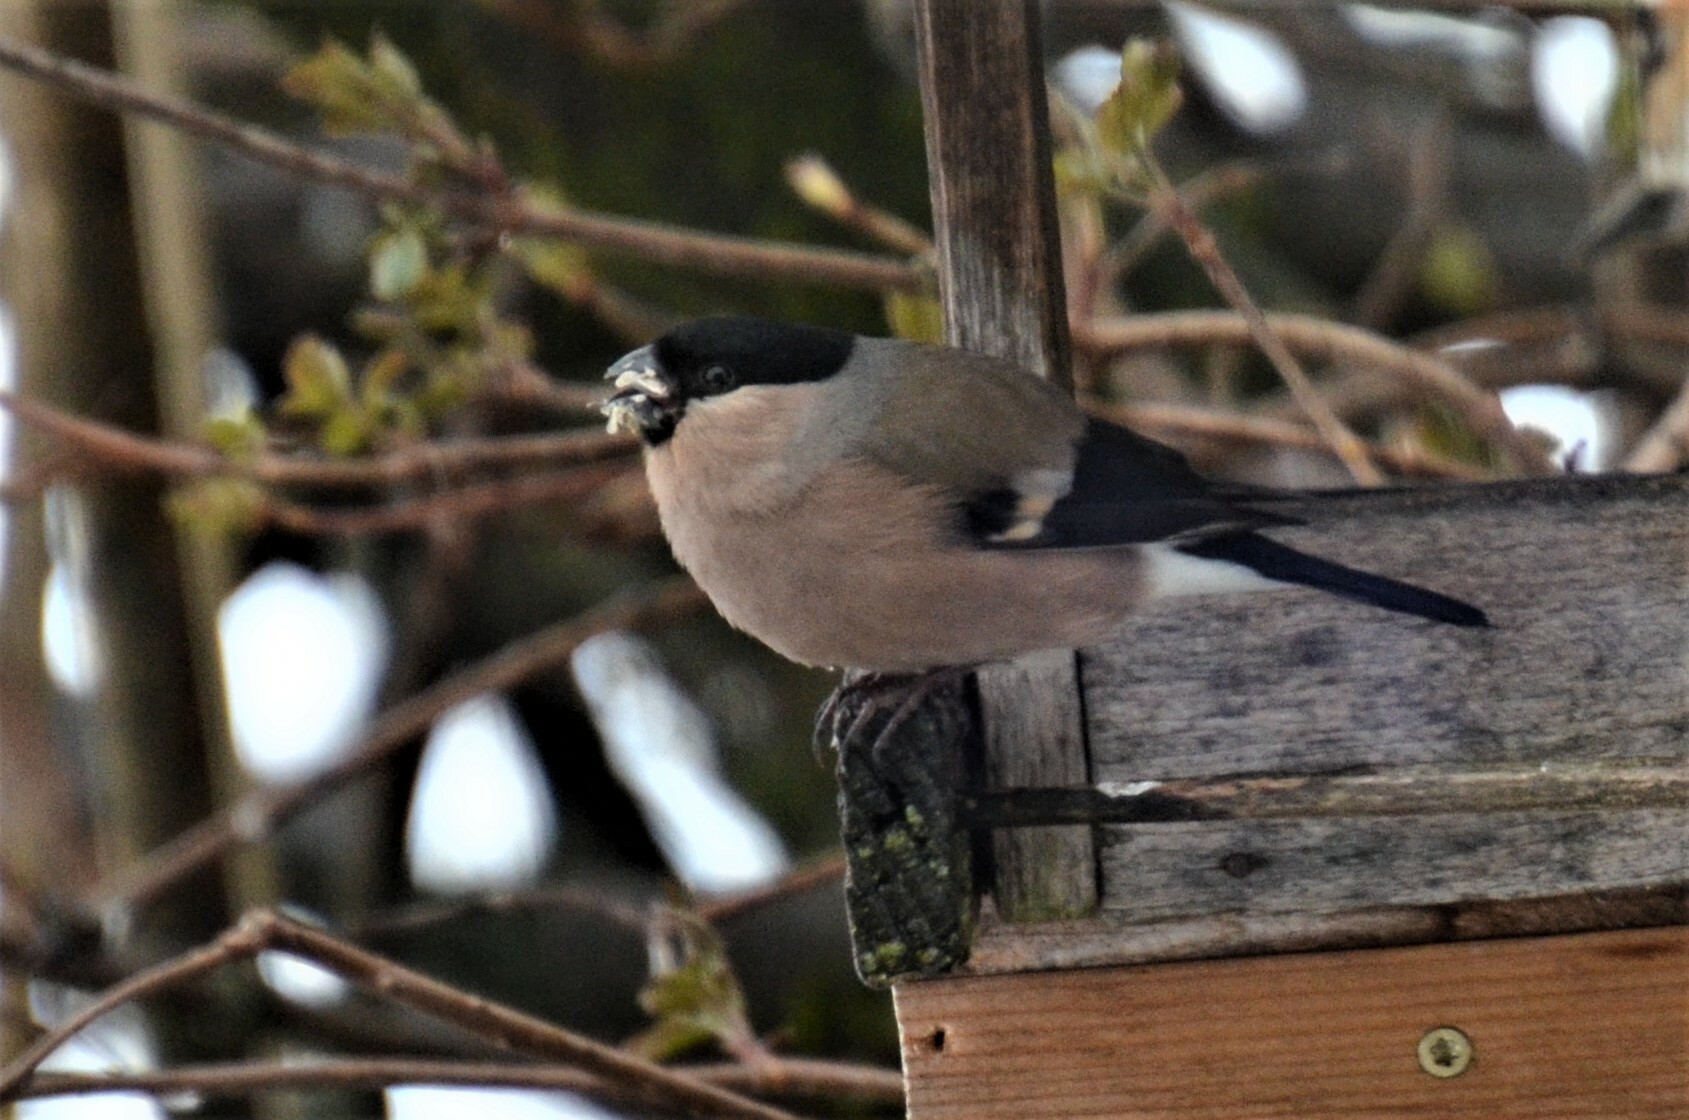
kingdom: Animalia
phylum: Chordata
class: Aves
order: Passeriformes
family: Fringillidae
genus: Pyrrhula
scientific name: Pyrrhula pyrrhula
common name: Eurasian bullfinch
